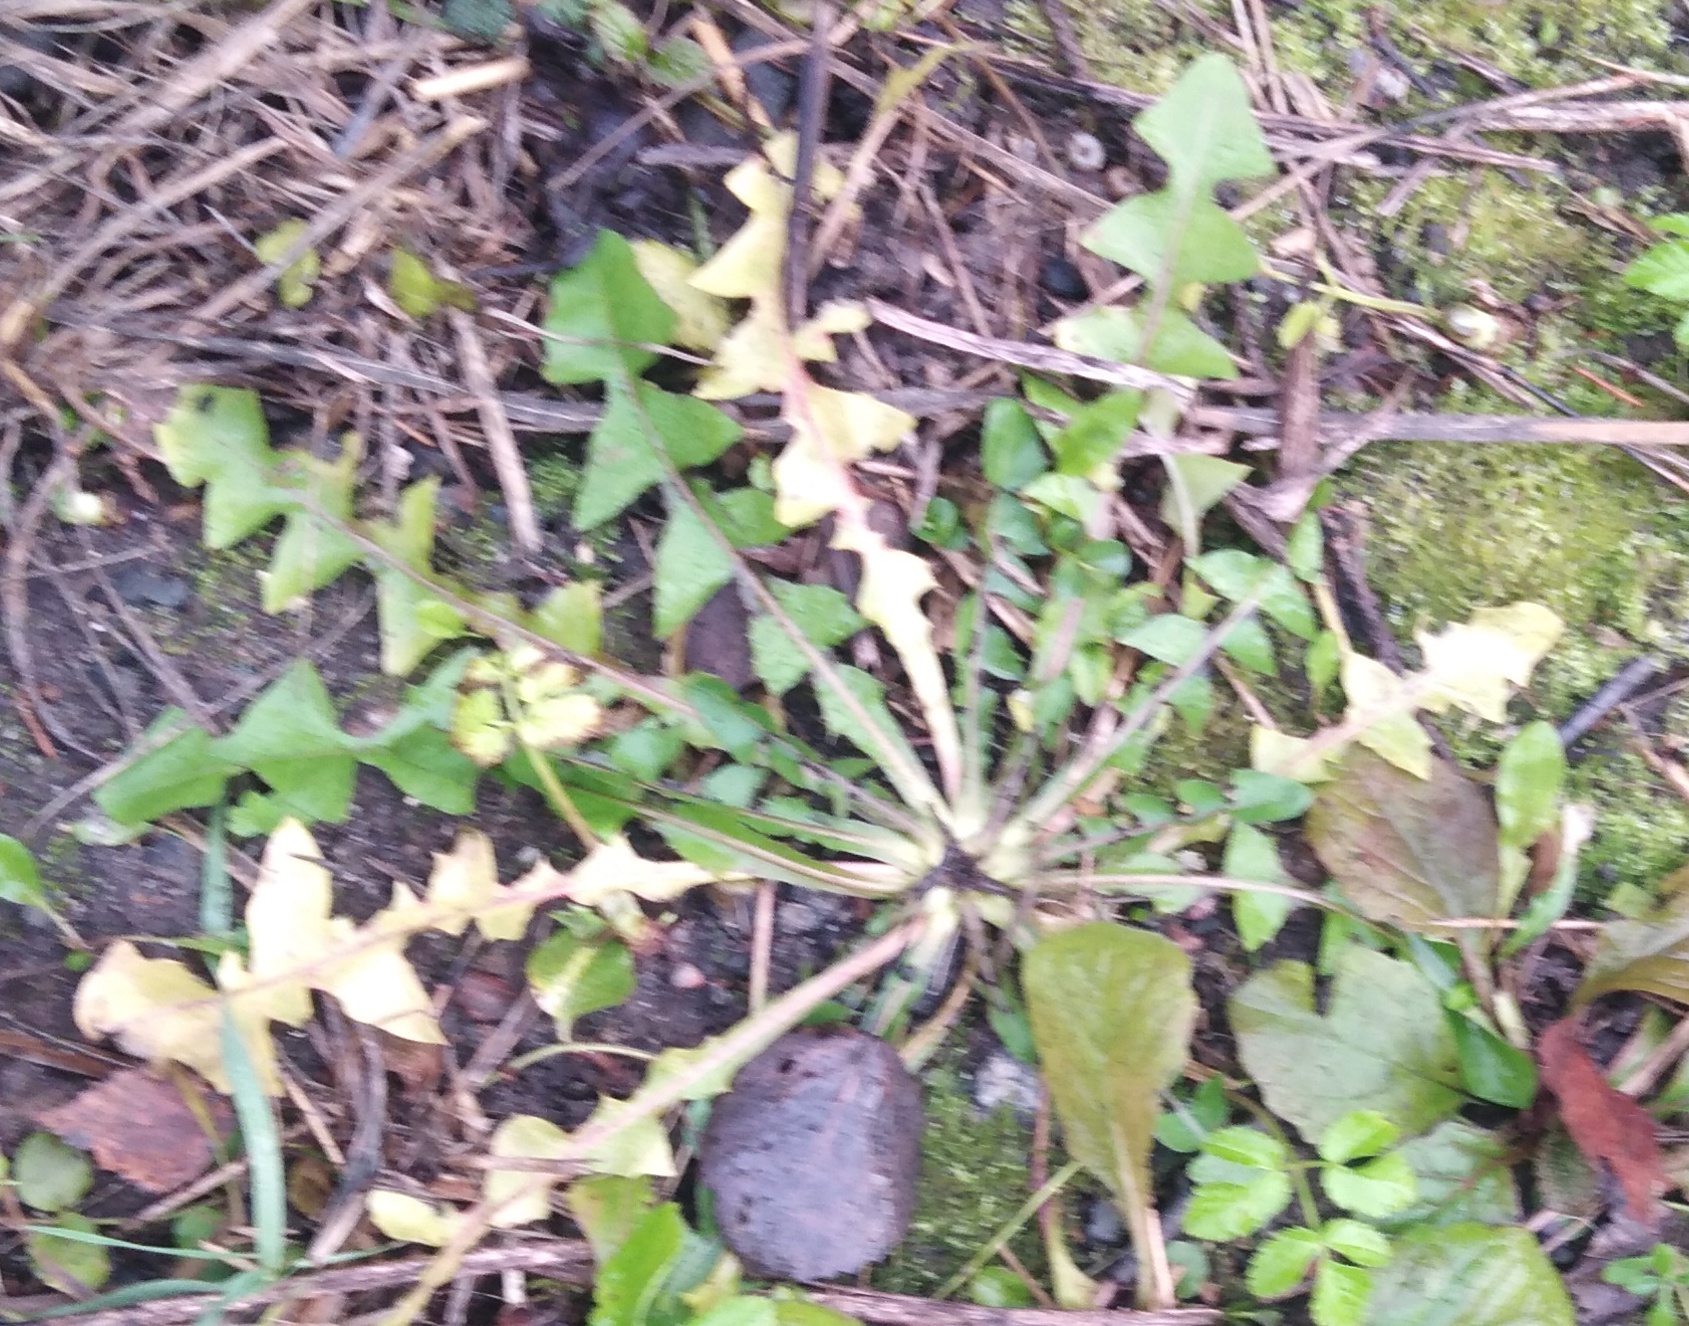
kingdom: Plantae
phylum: Tracheophyta
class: Magnoliopsida
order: Asterales
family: Asteraceae
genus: Taraxacum
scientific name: Taraxacum officinale
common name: Common dandelion
